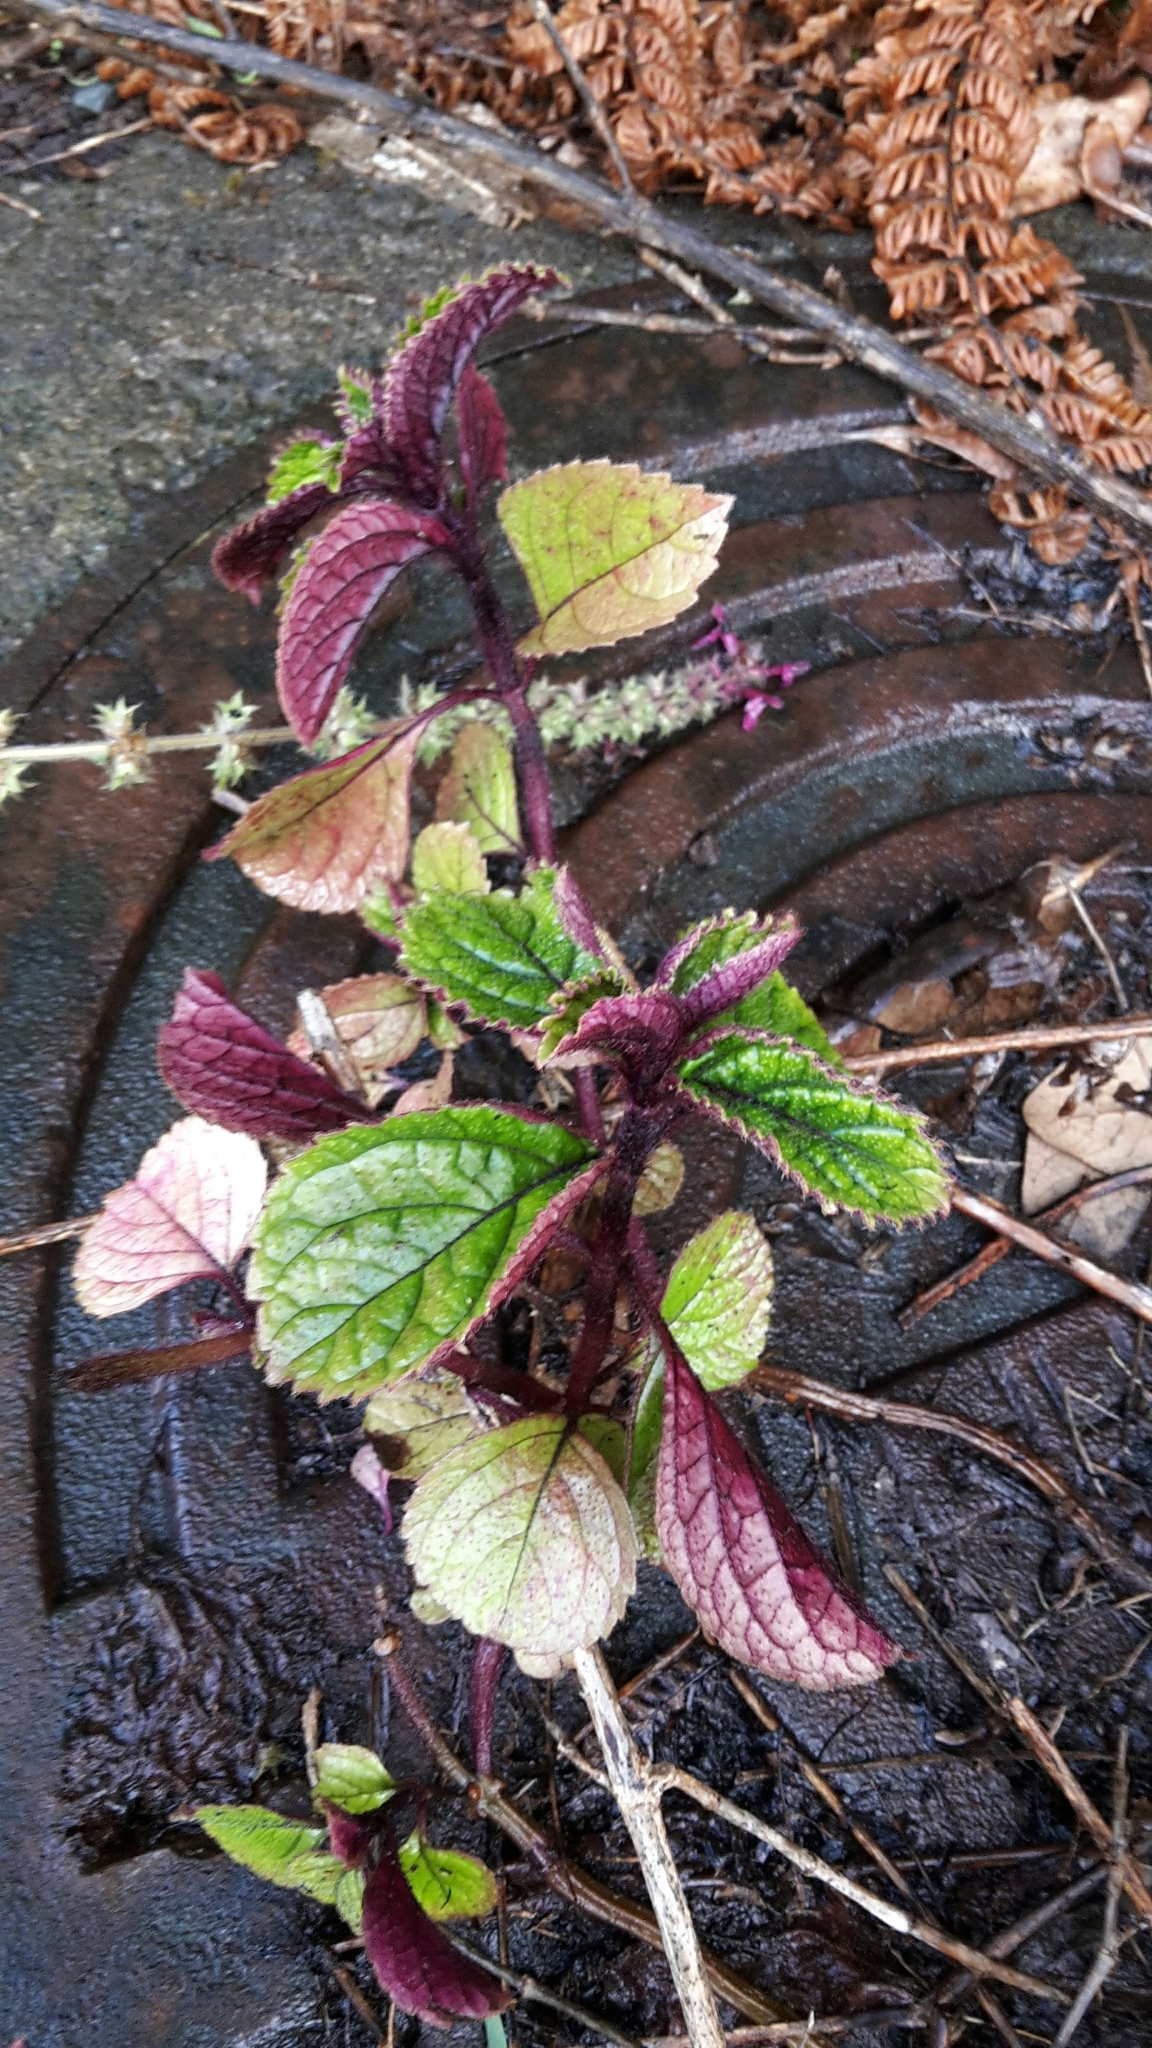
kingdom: Plantae
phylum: Tracheophyta
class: Magnoliopsida
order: Lamiales
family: Lamiaceae
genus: Plectranthus
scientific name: Plectranthus ciliatus
